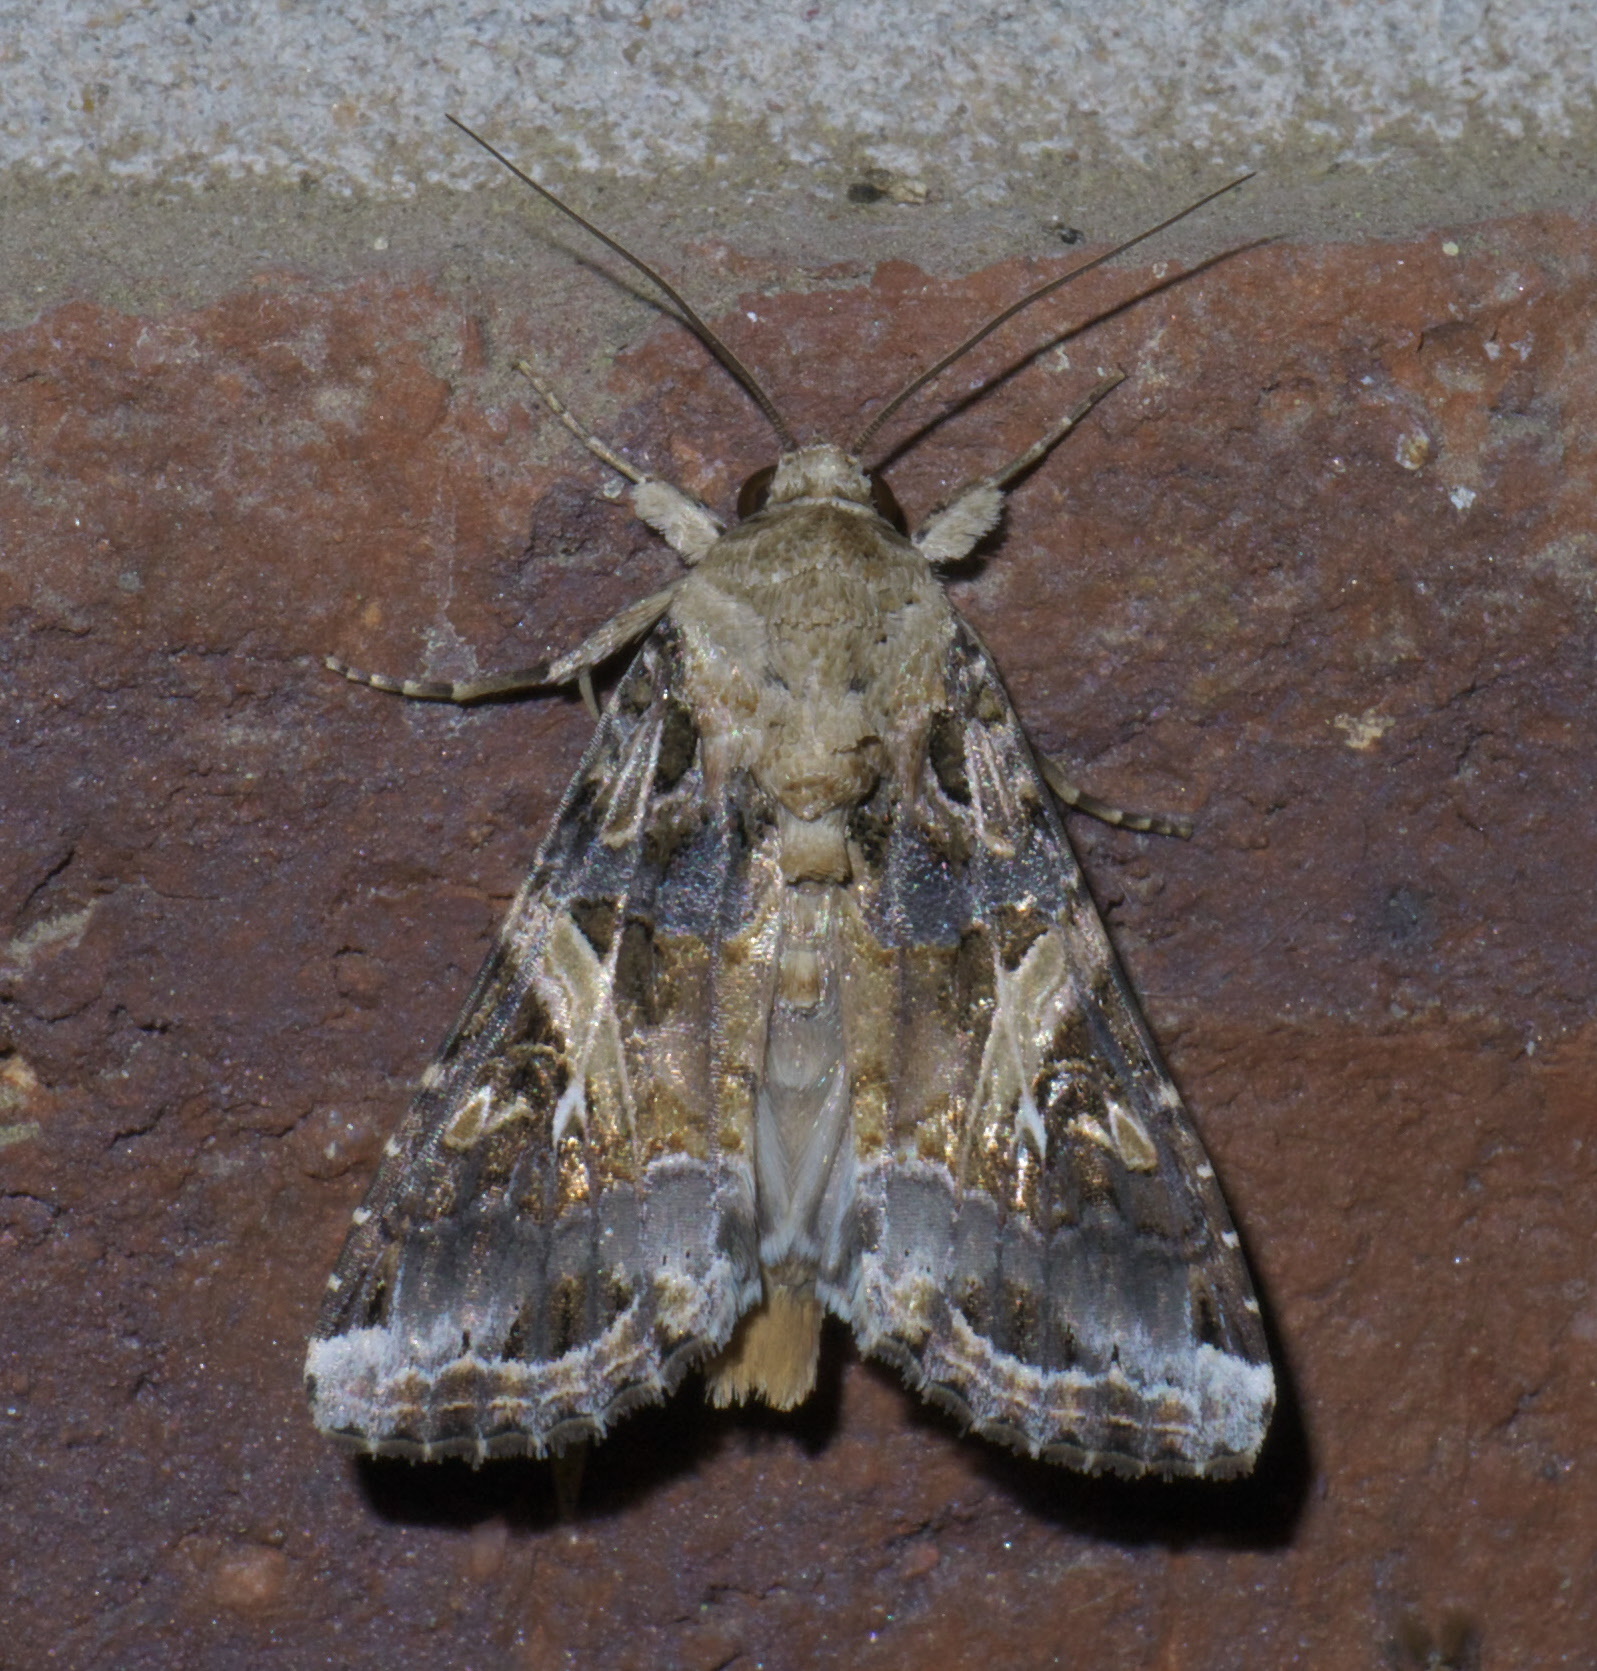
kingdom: Animalia
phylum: Arthropoda
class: Insecta
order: Lepidoptera
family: Noctuidae
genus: Spodoptera
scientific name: Spodoptera ornithogalli
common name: Yellow-striped armyworm
